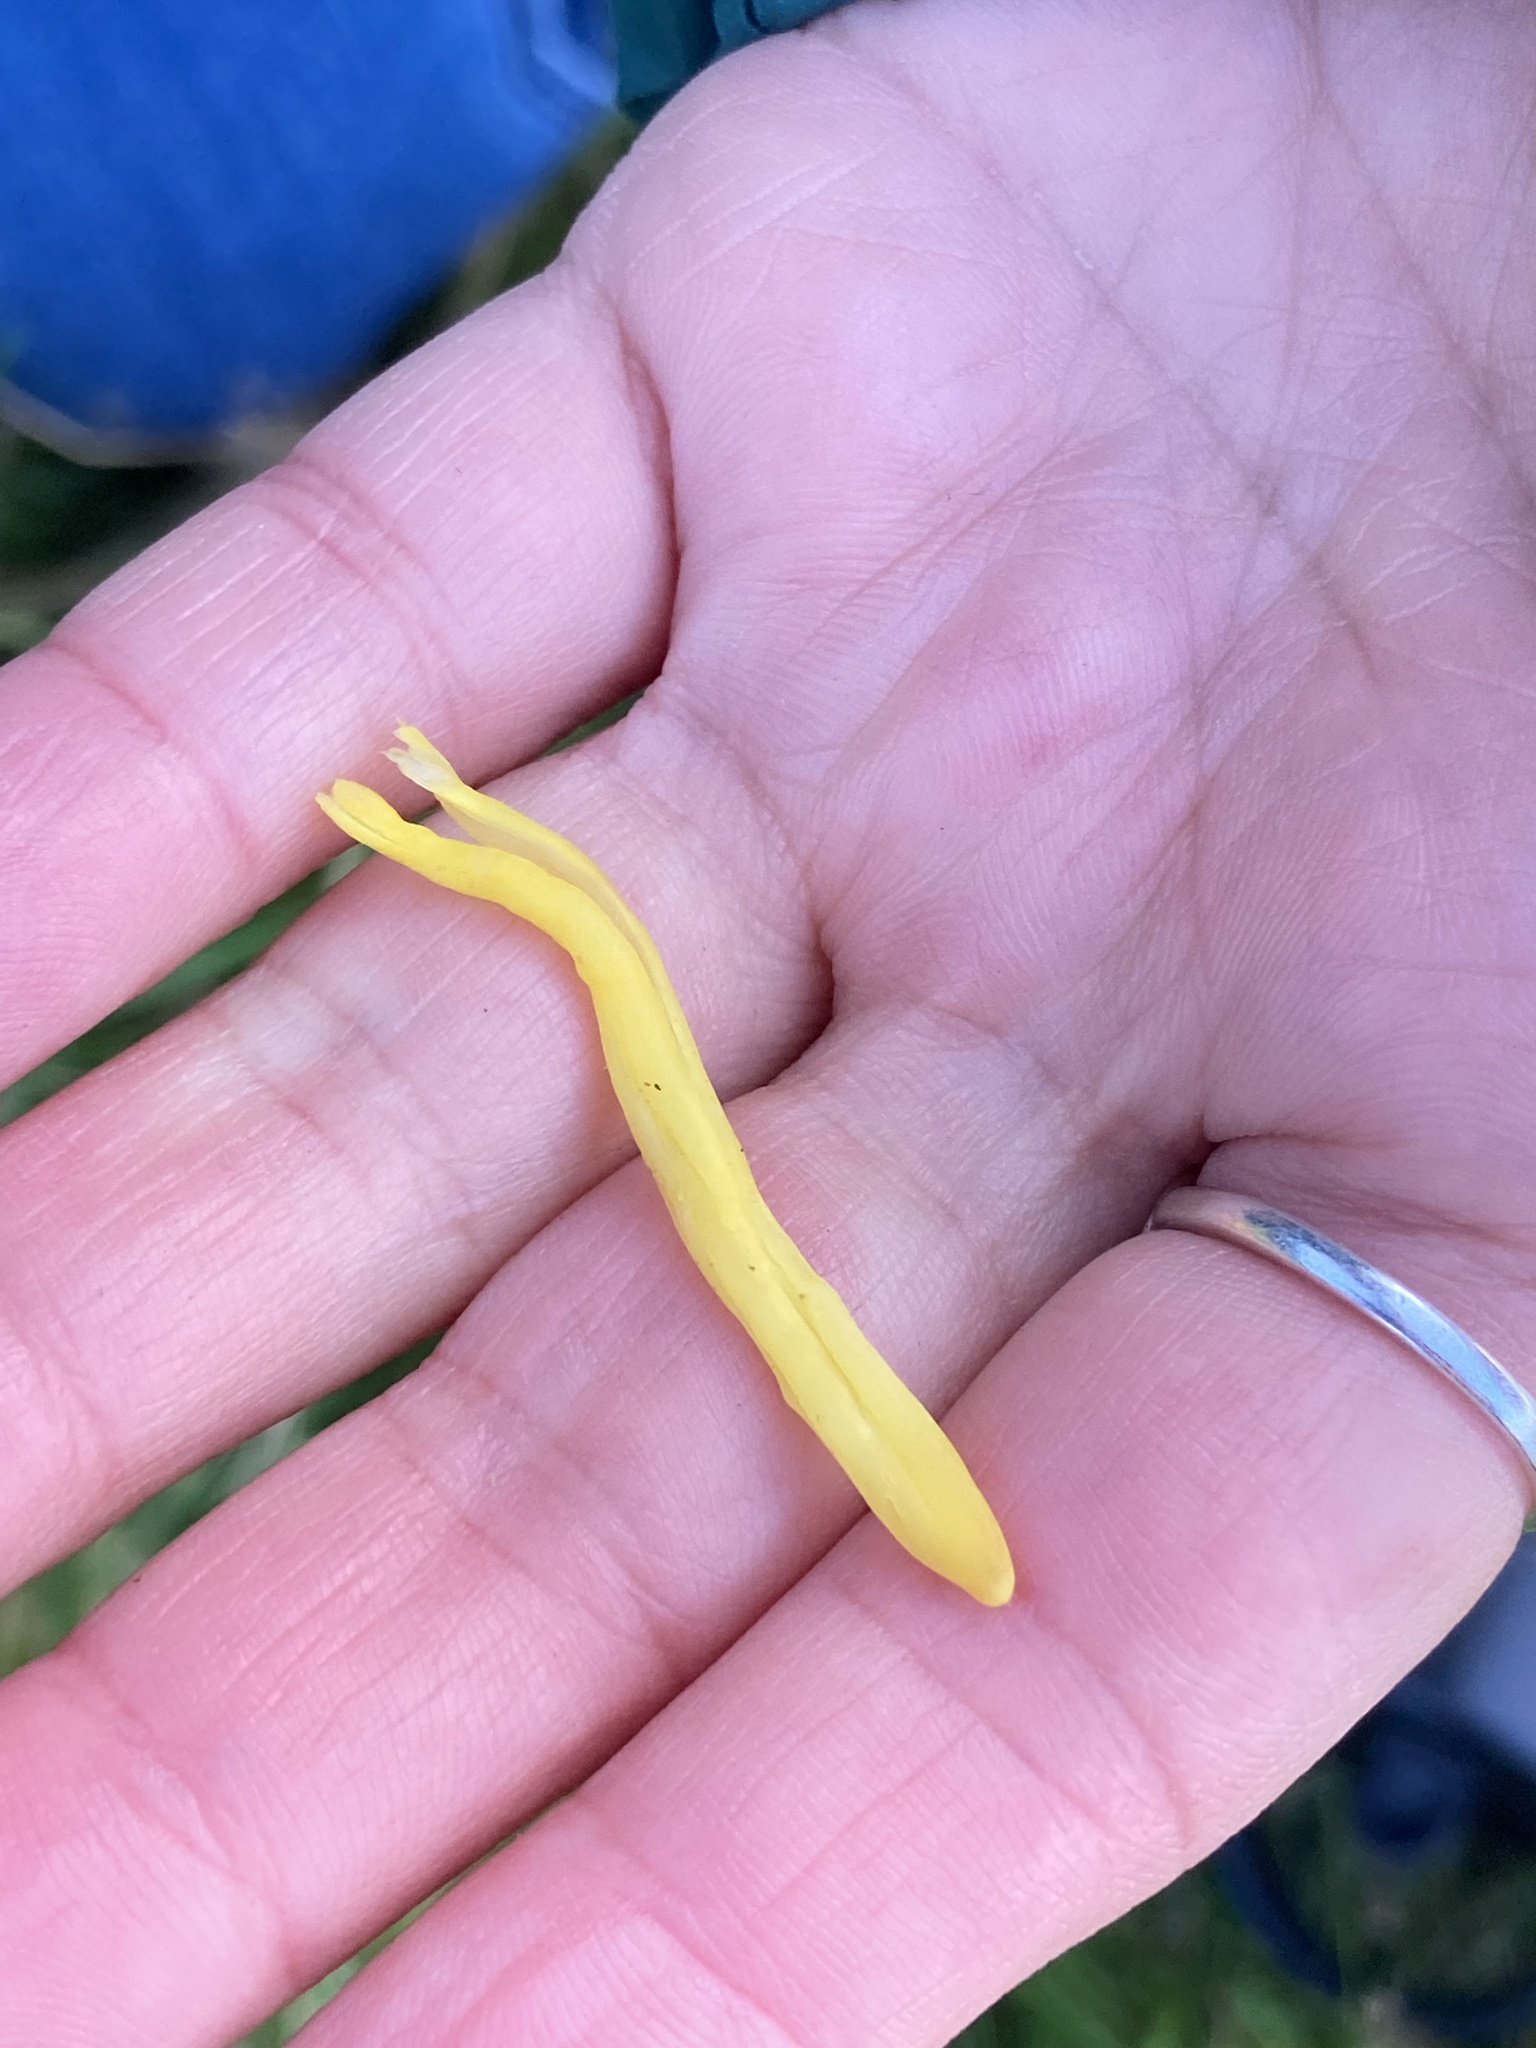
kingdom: Fungi
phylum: Basidiomycota
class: Agaricomycetes
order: Agaricales
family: Clavariaceae
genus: Clavulinopsis
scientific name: Clavulinopsis helvola
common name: Yellow club
